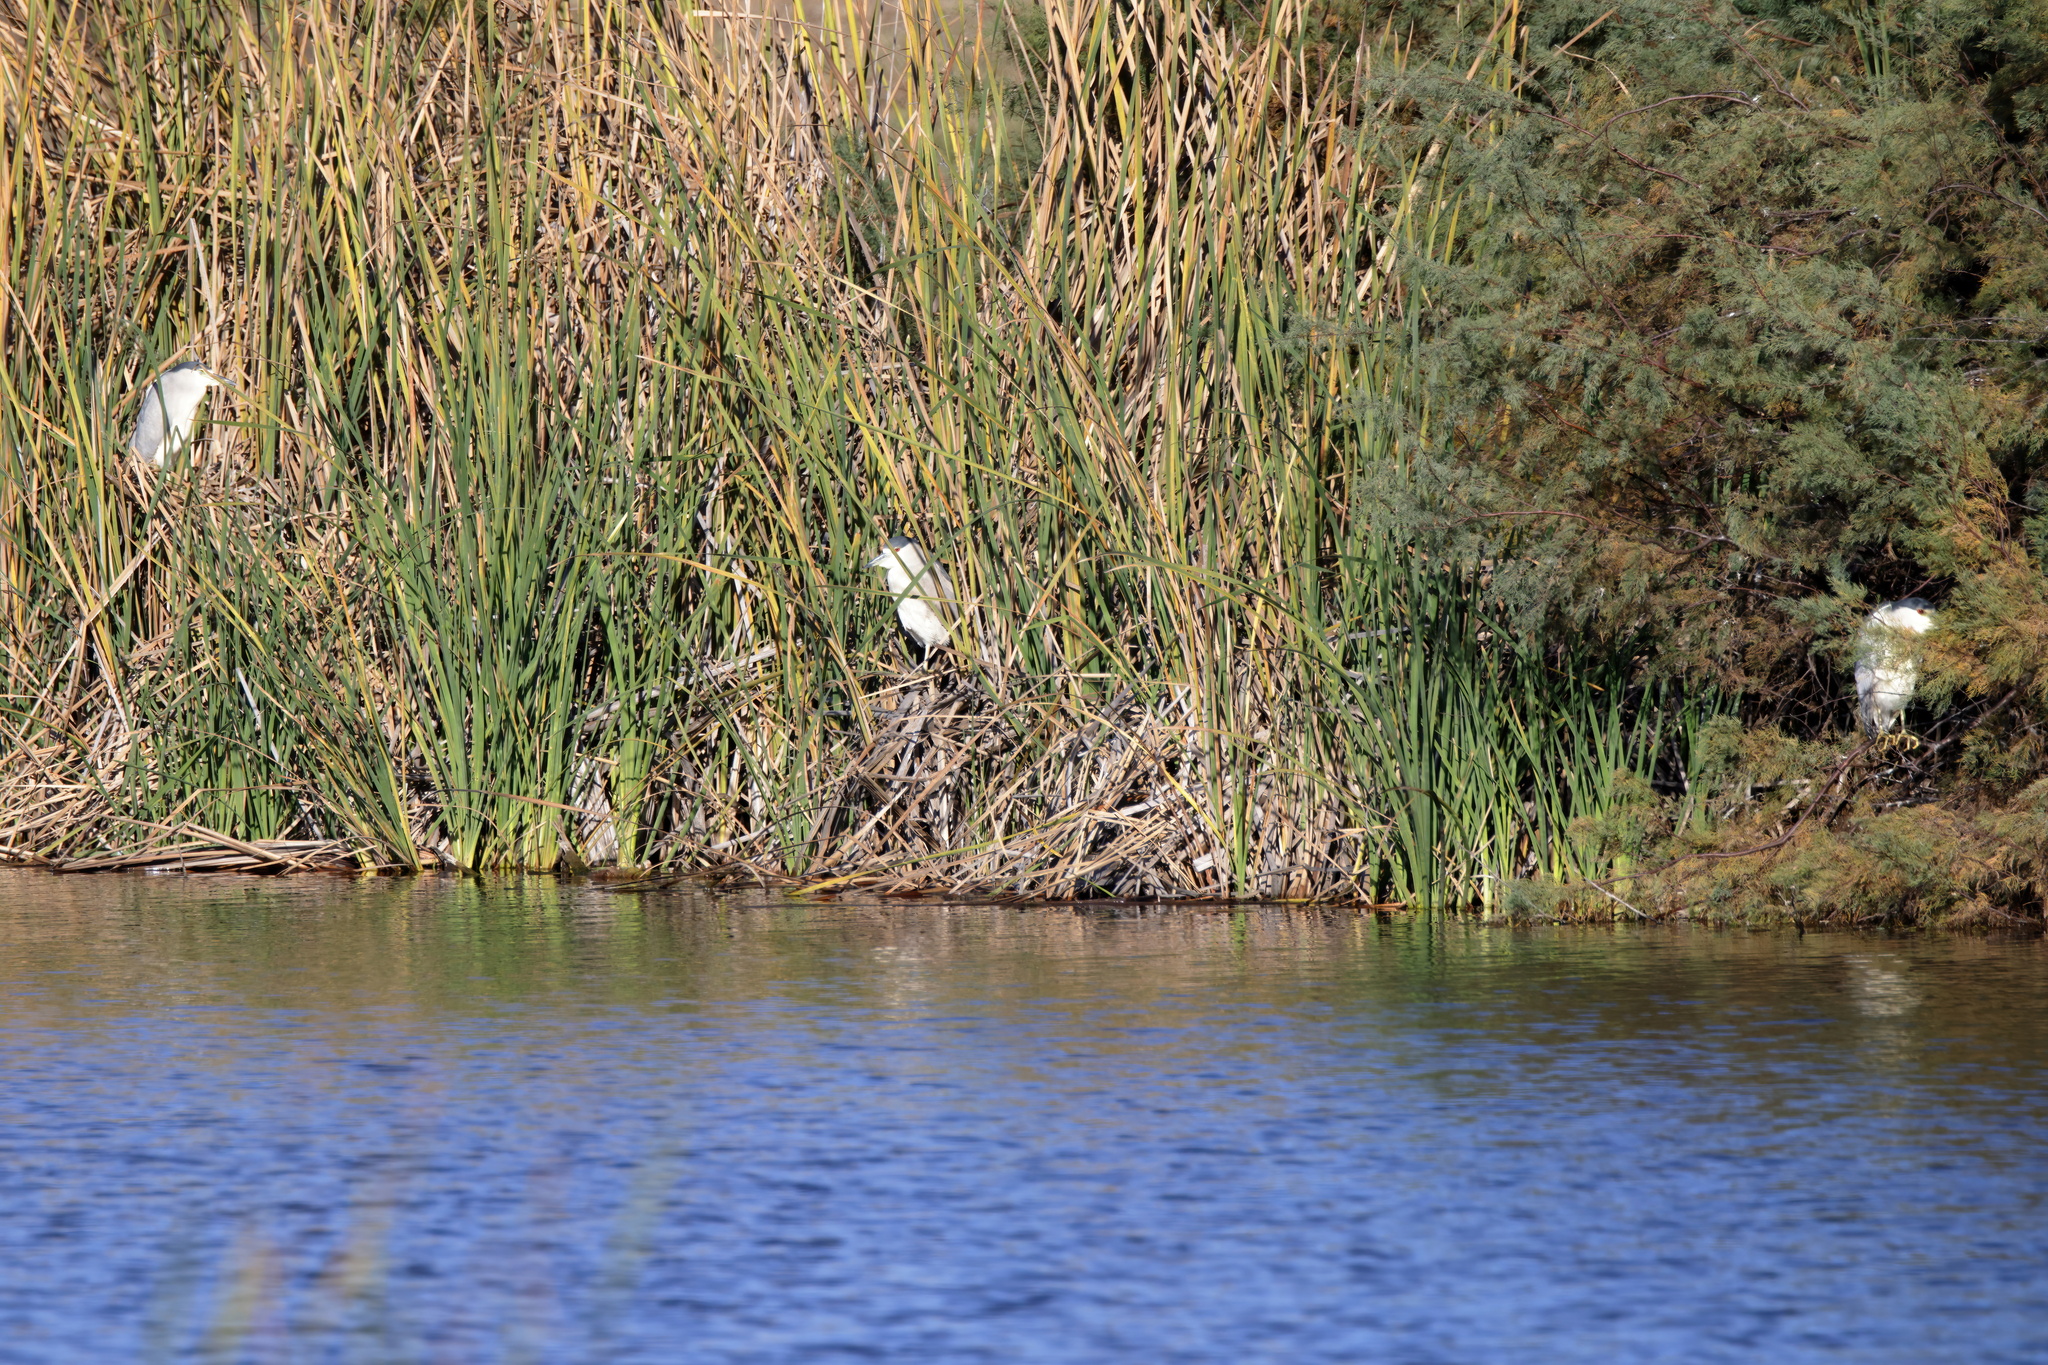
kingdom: Animalia
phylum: Chordata
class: Aves
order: Pelecaniformes
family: Ardeidae
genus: Nycticorax
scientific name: Nycticorax nycticorax
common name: Black-crowned night heron
